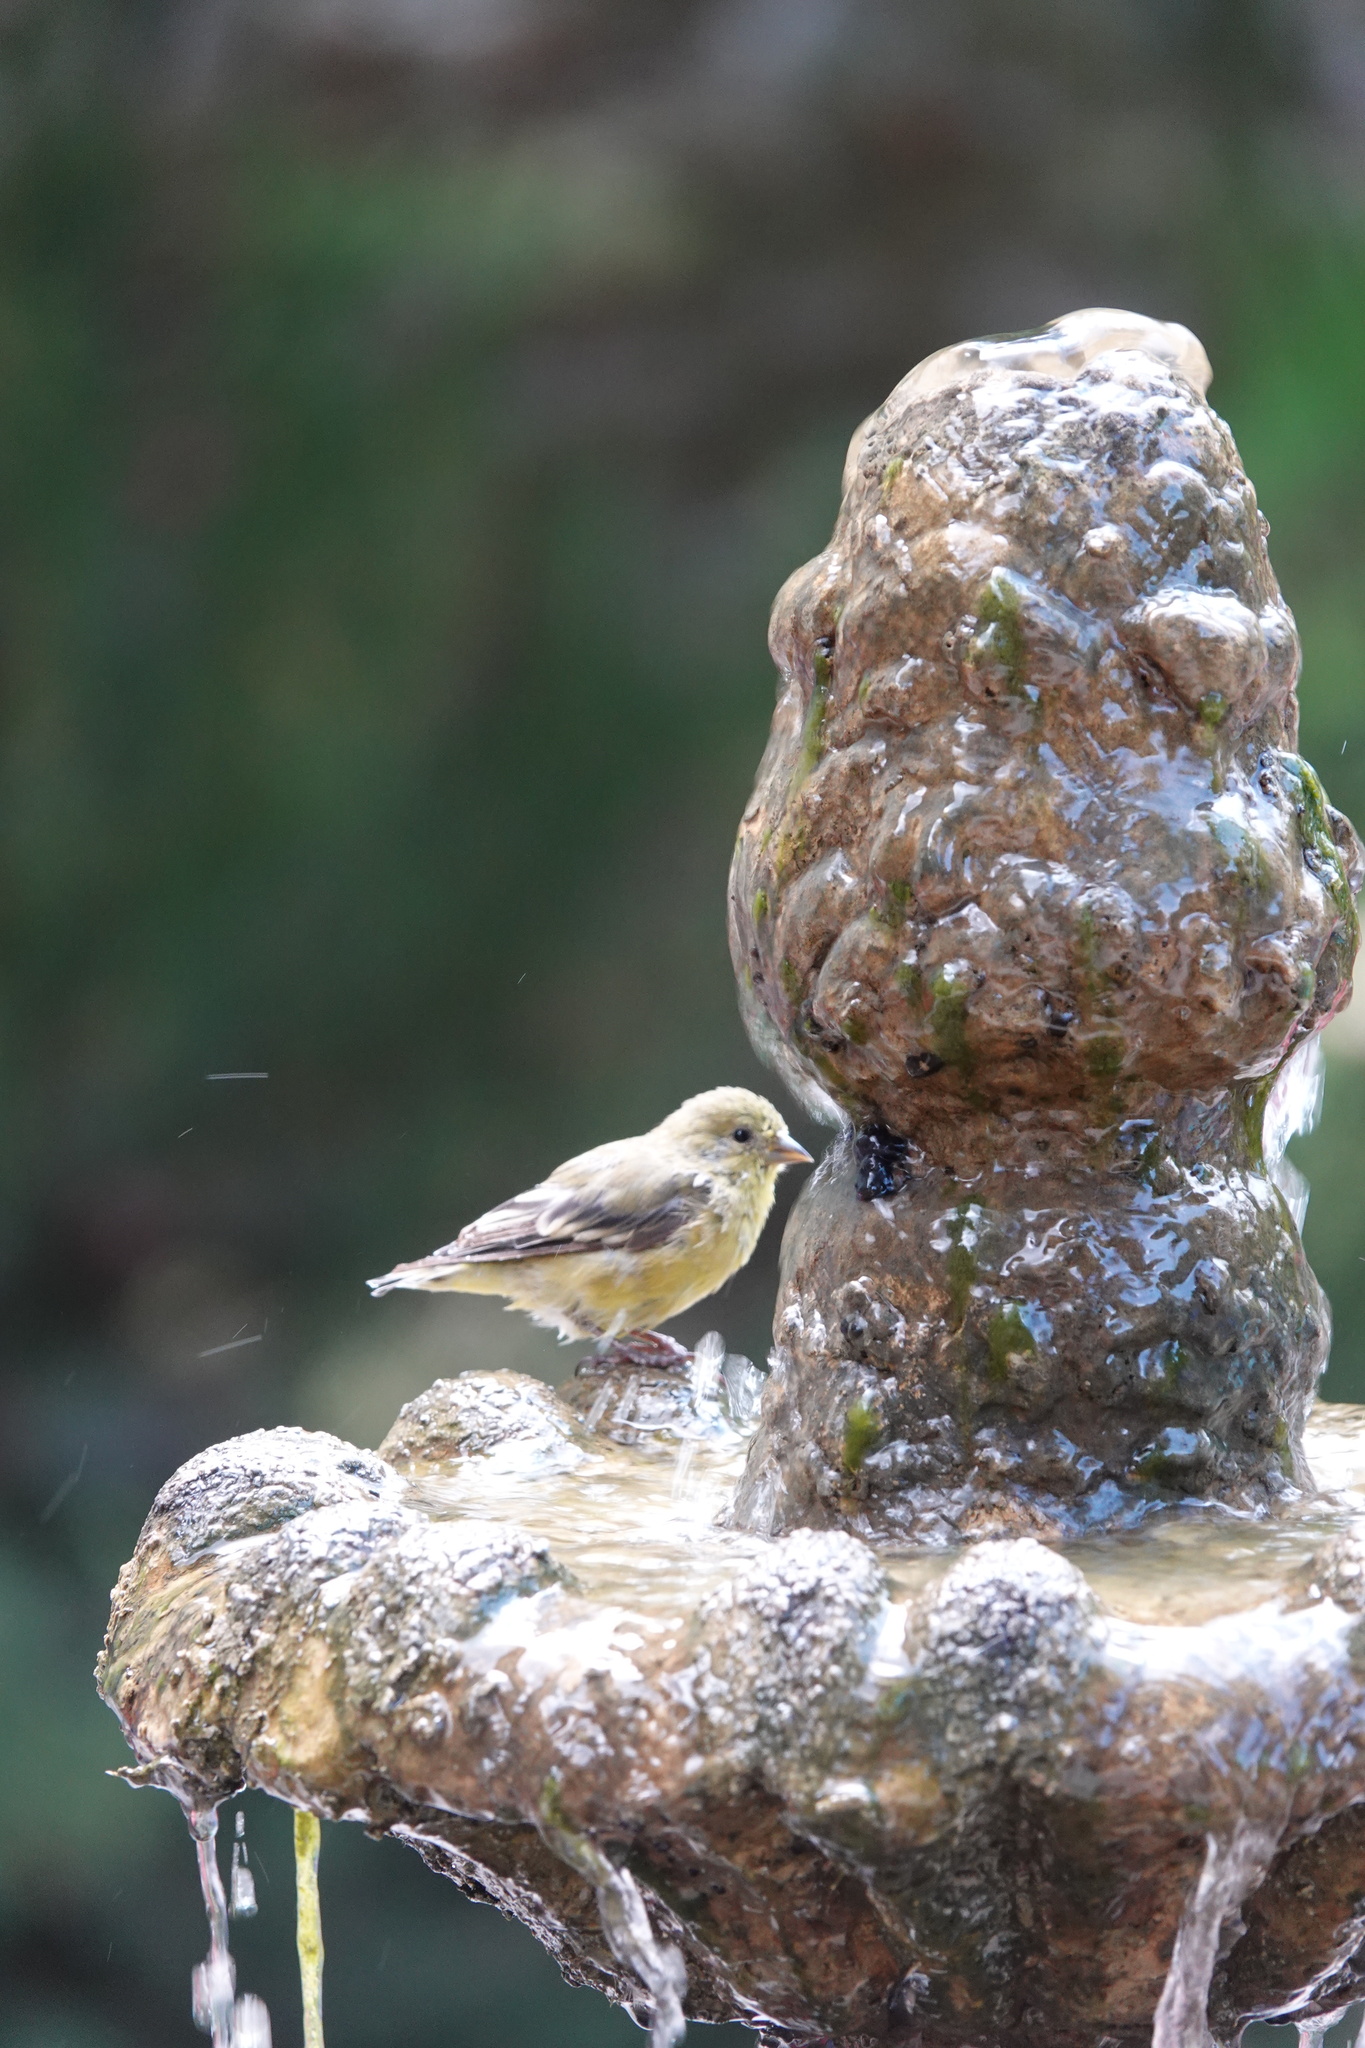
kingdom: Animalia
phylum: Chordata
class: Aves
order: Passeriformes
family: Fringillidae
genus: Spinus
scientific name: Spinus psaltria
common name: Lesser goldfinch
